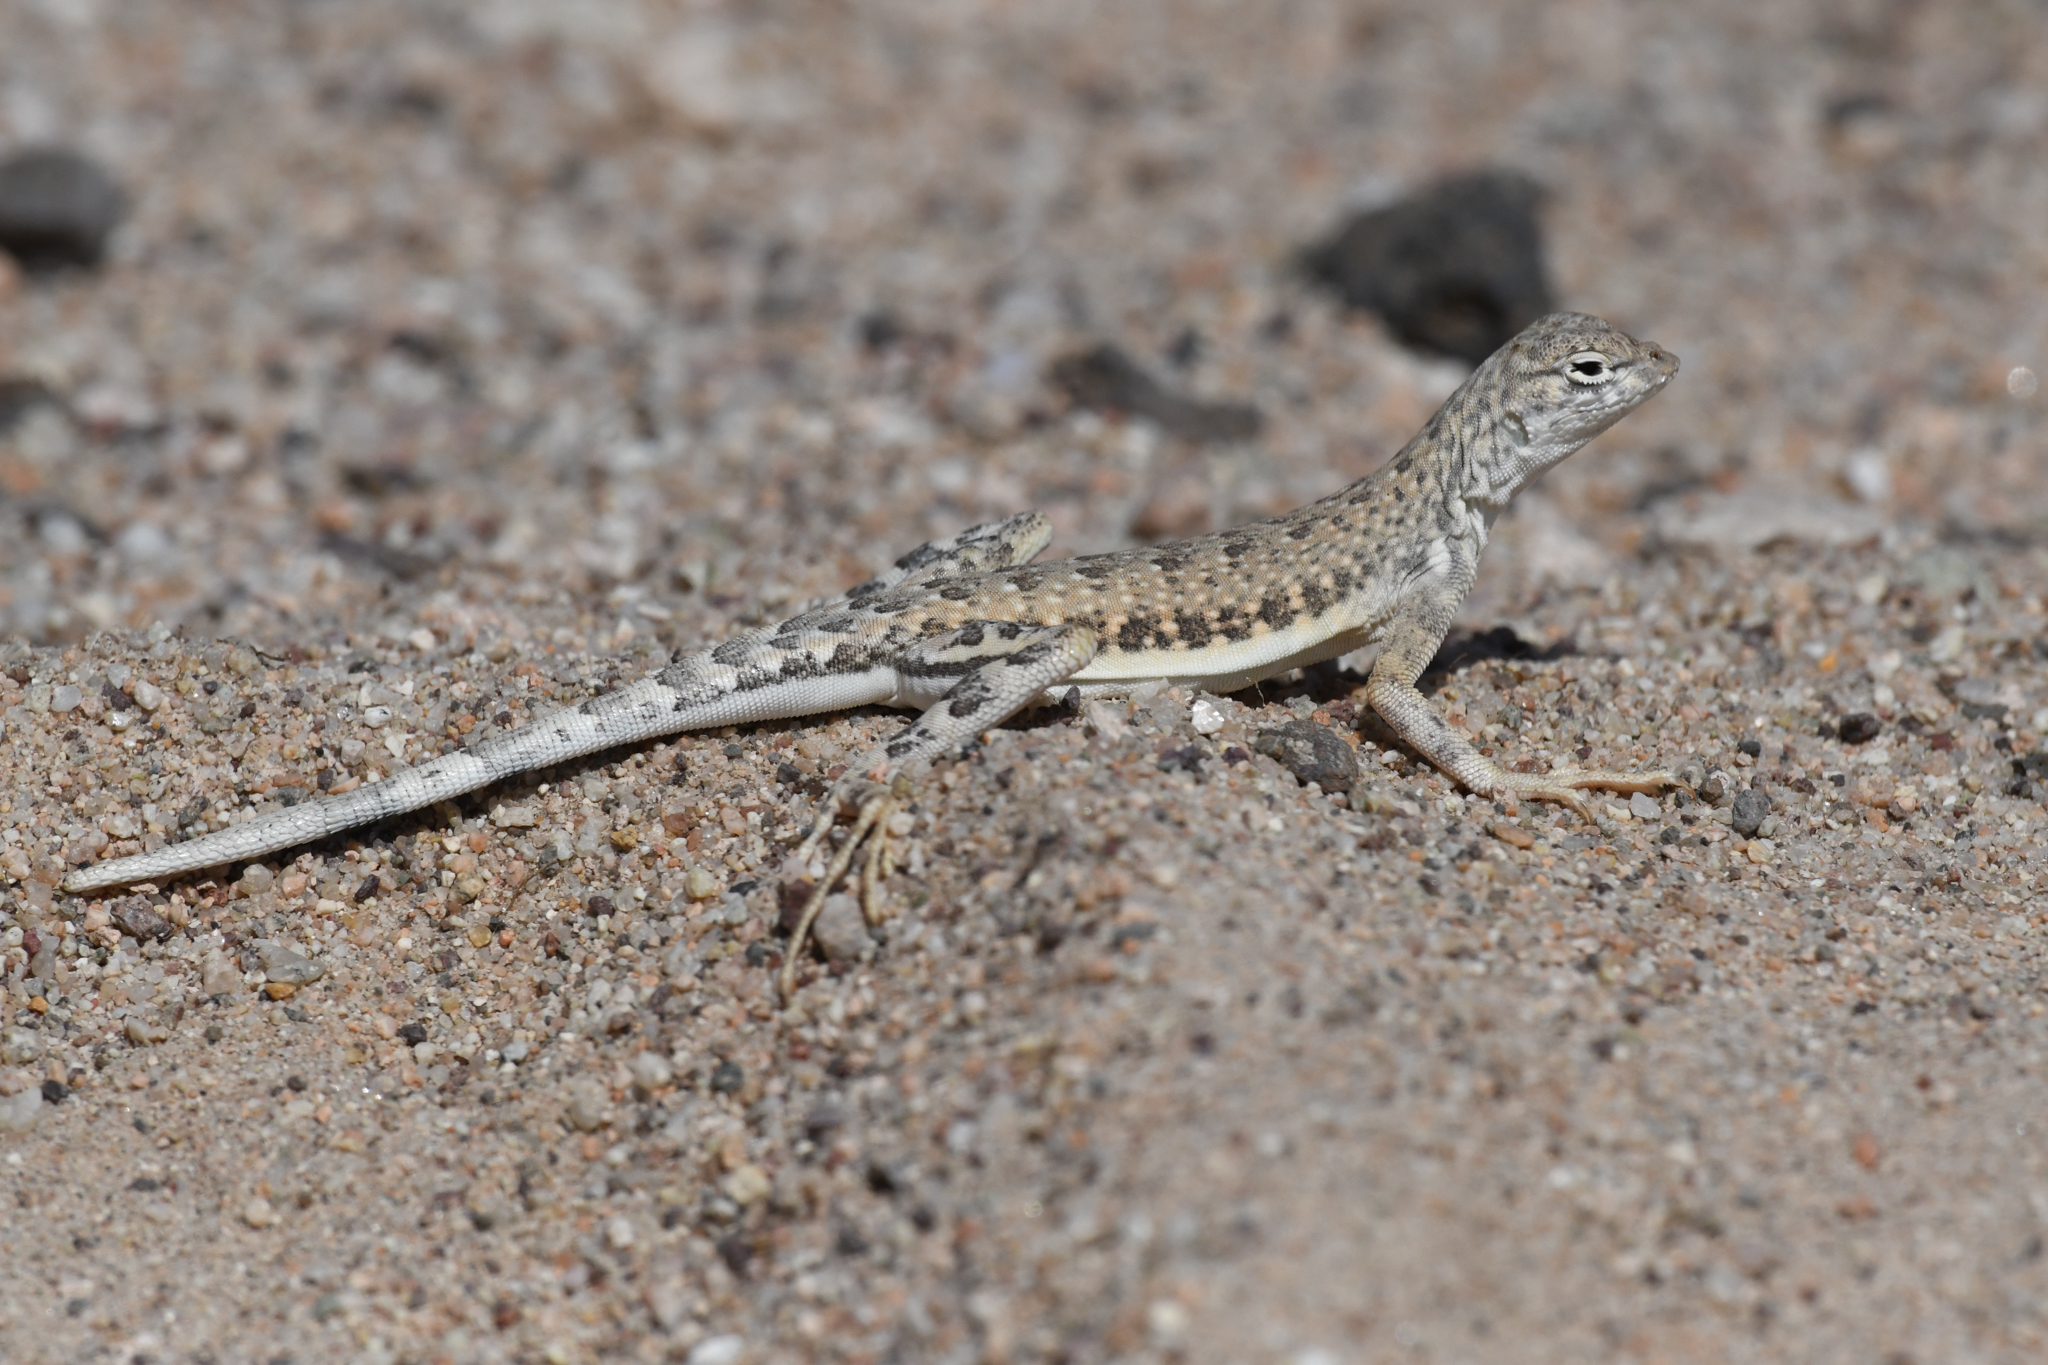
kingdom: Animalia
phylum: Chordata
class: Squamata
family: Phrynosomatidae
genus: Callisaurus
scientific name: Callisaurus draconoides
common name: Zebra-tailed lizard
